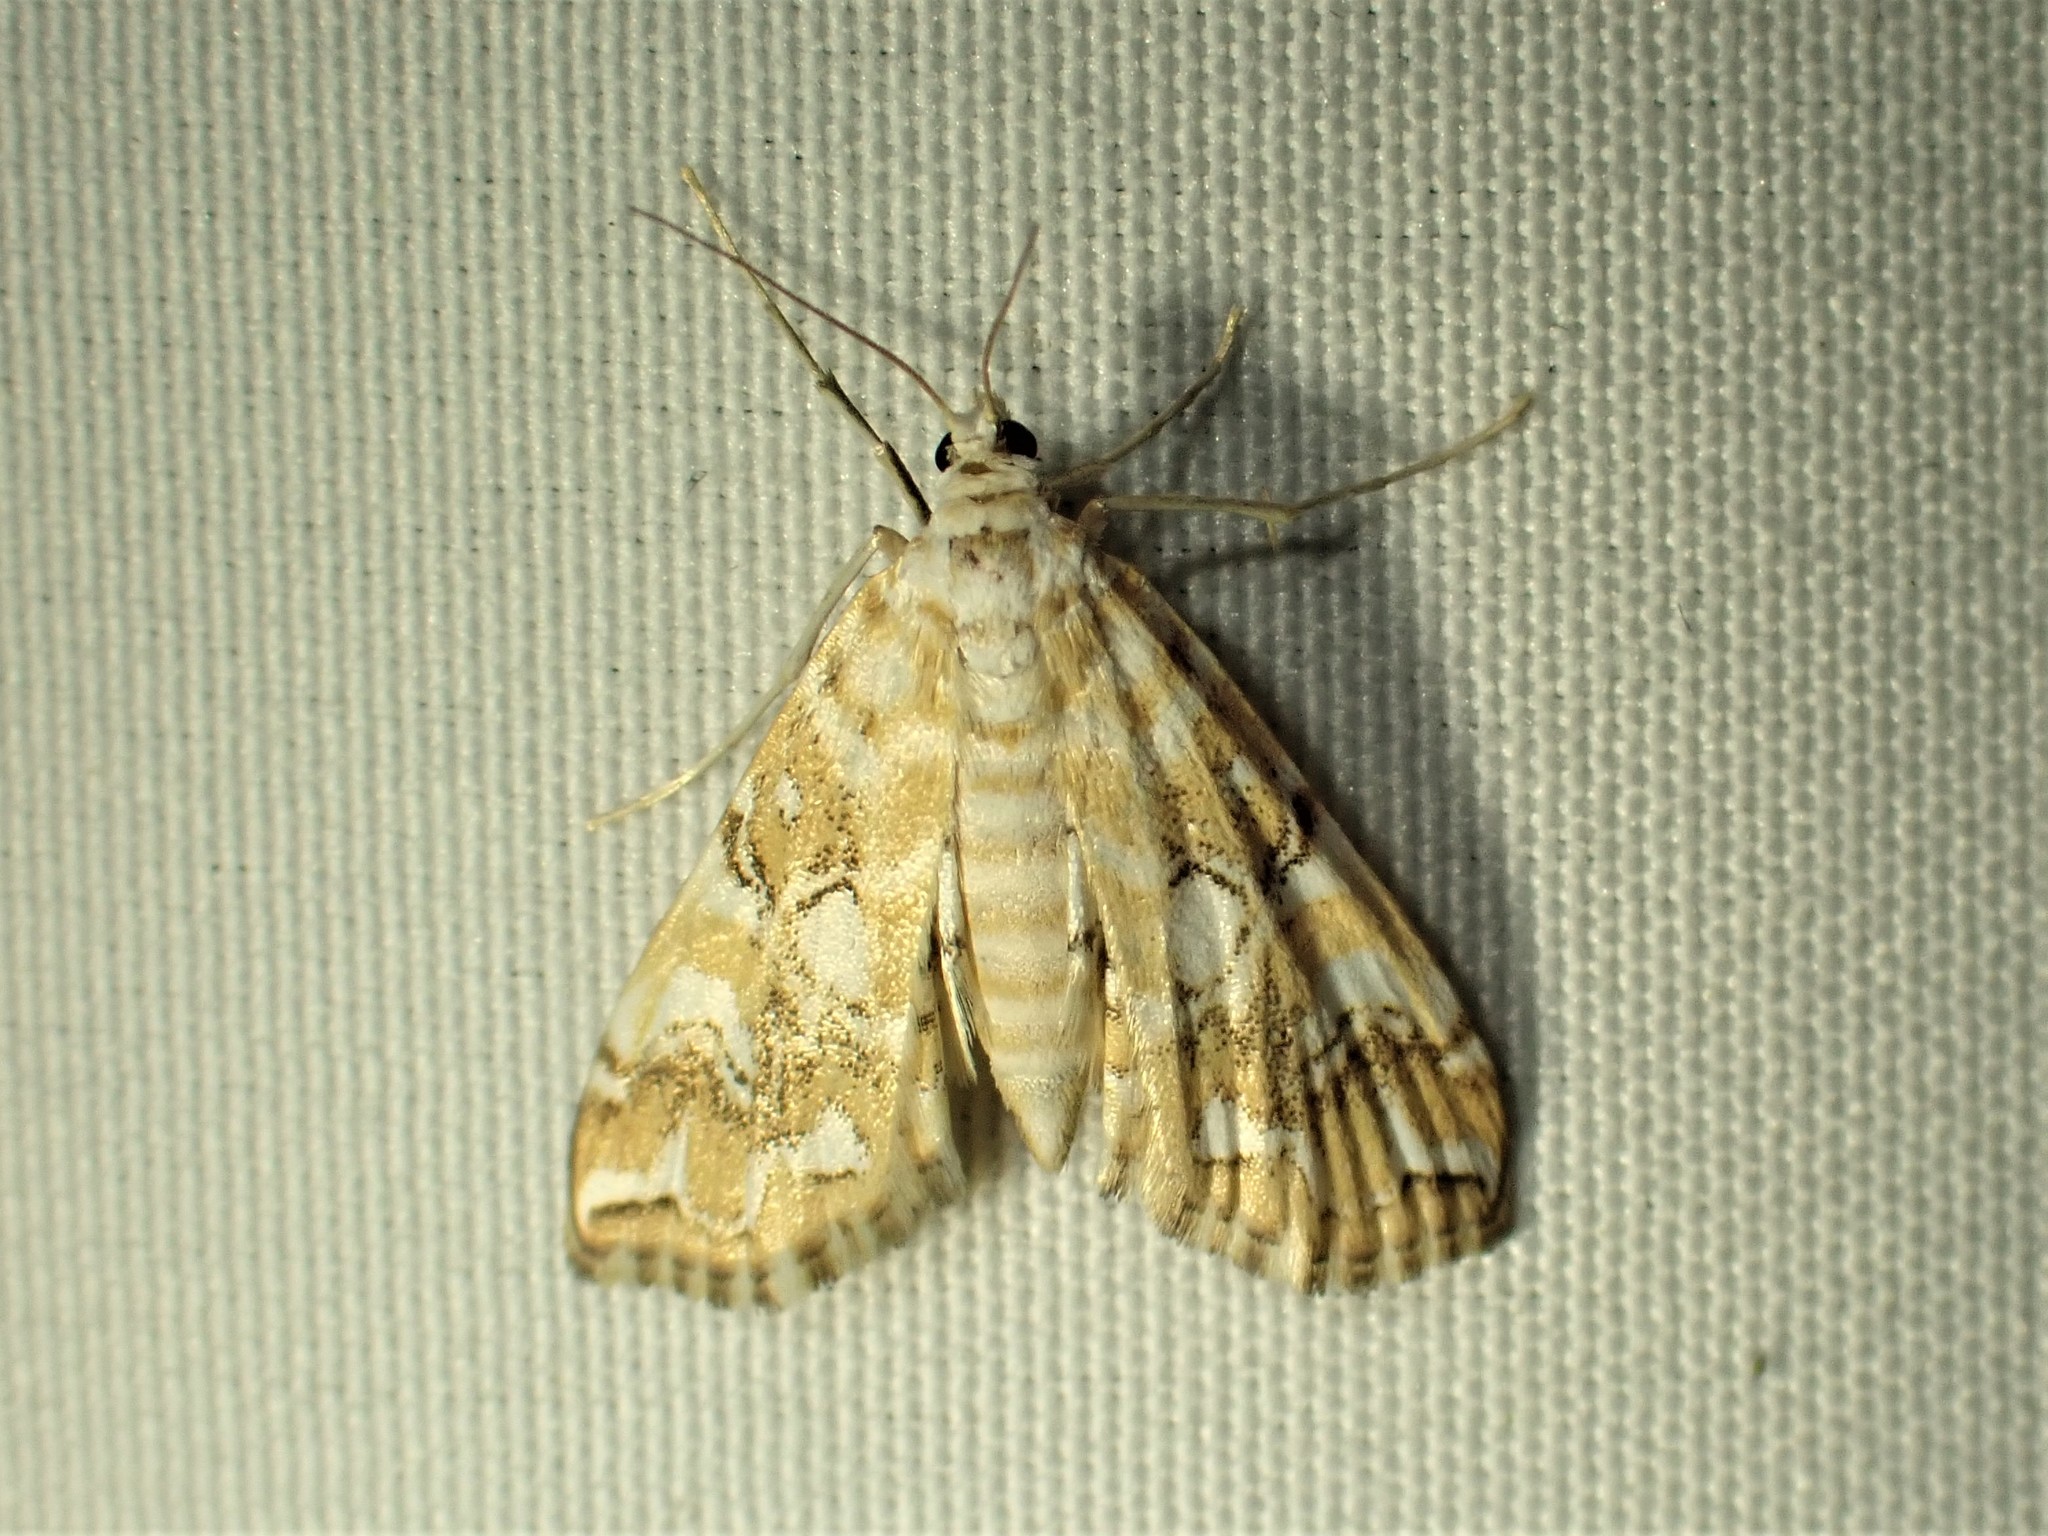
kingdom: Animalia
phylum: Arthropoda
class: Insecta
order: Lepidoptera
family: Crambidae
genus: Elophila
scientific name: Elophila icciusalis
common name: Pondside pyralid moth
